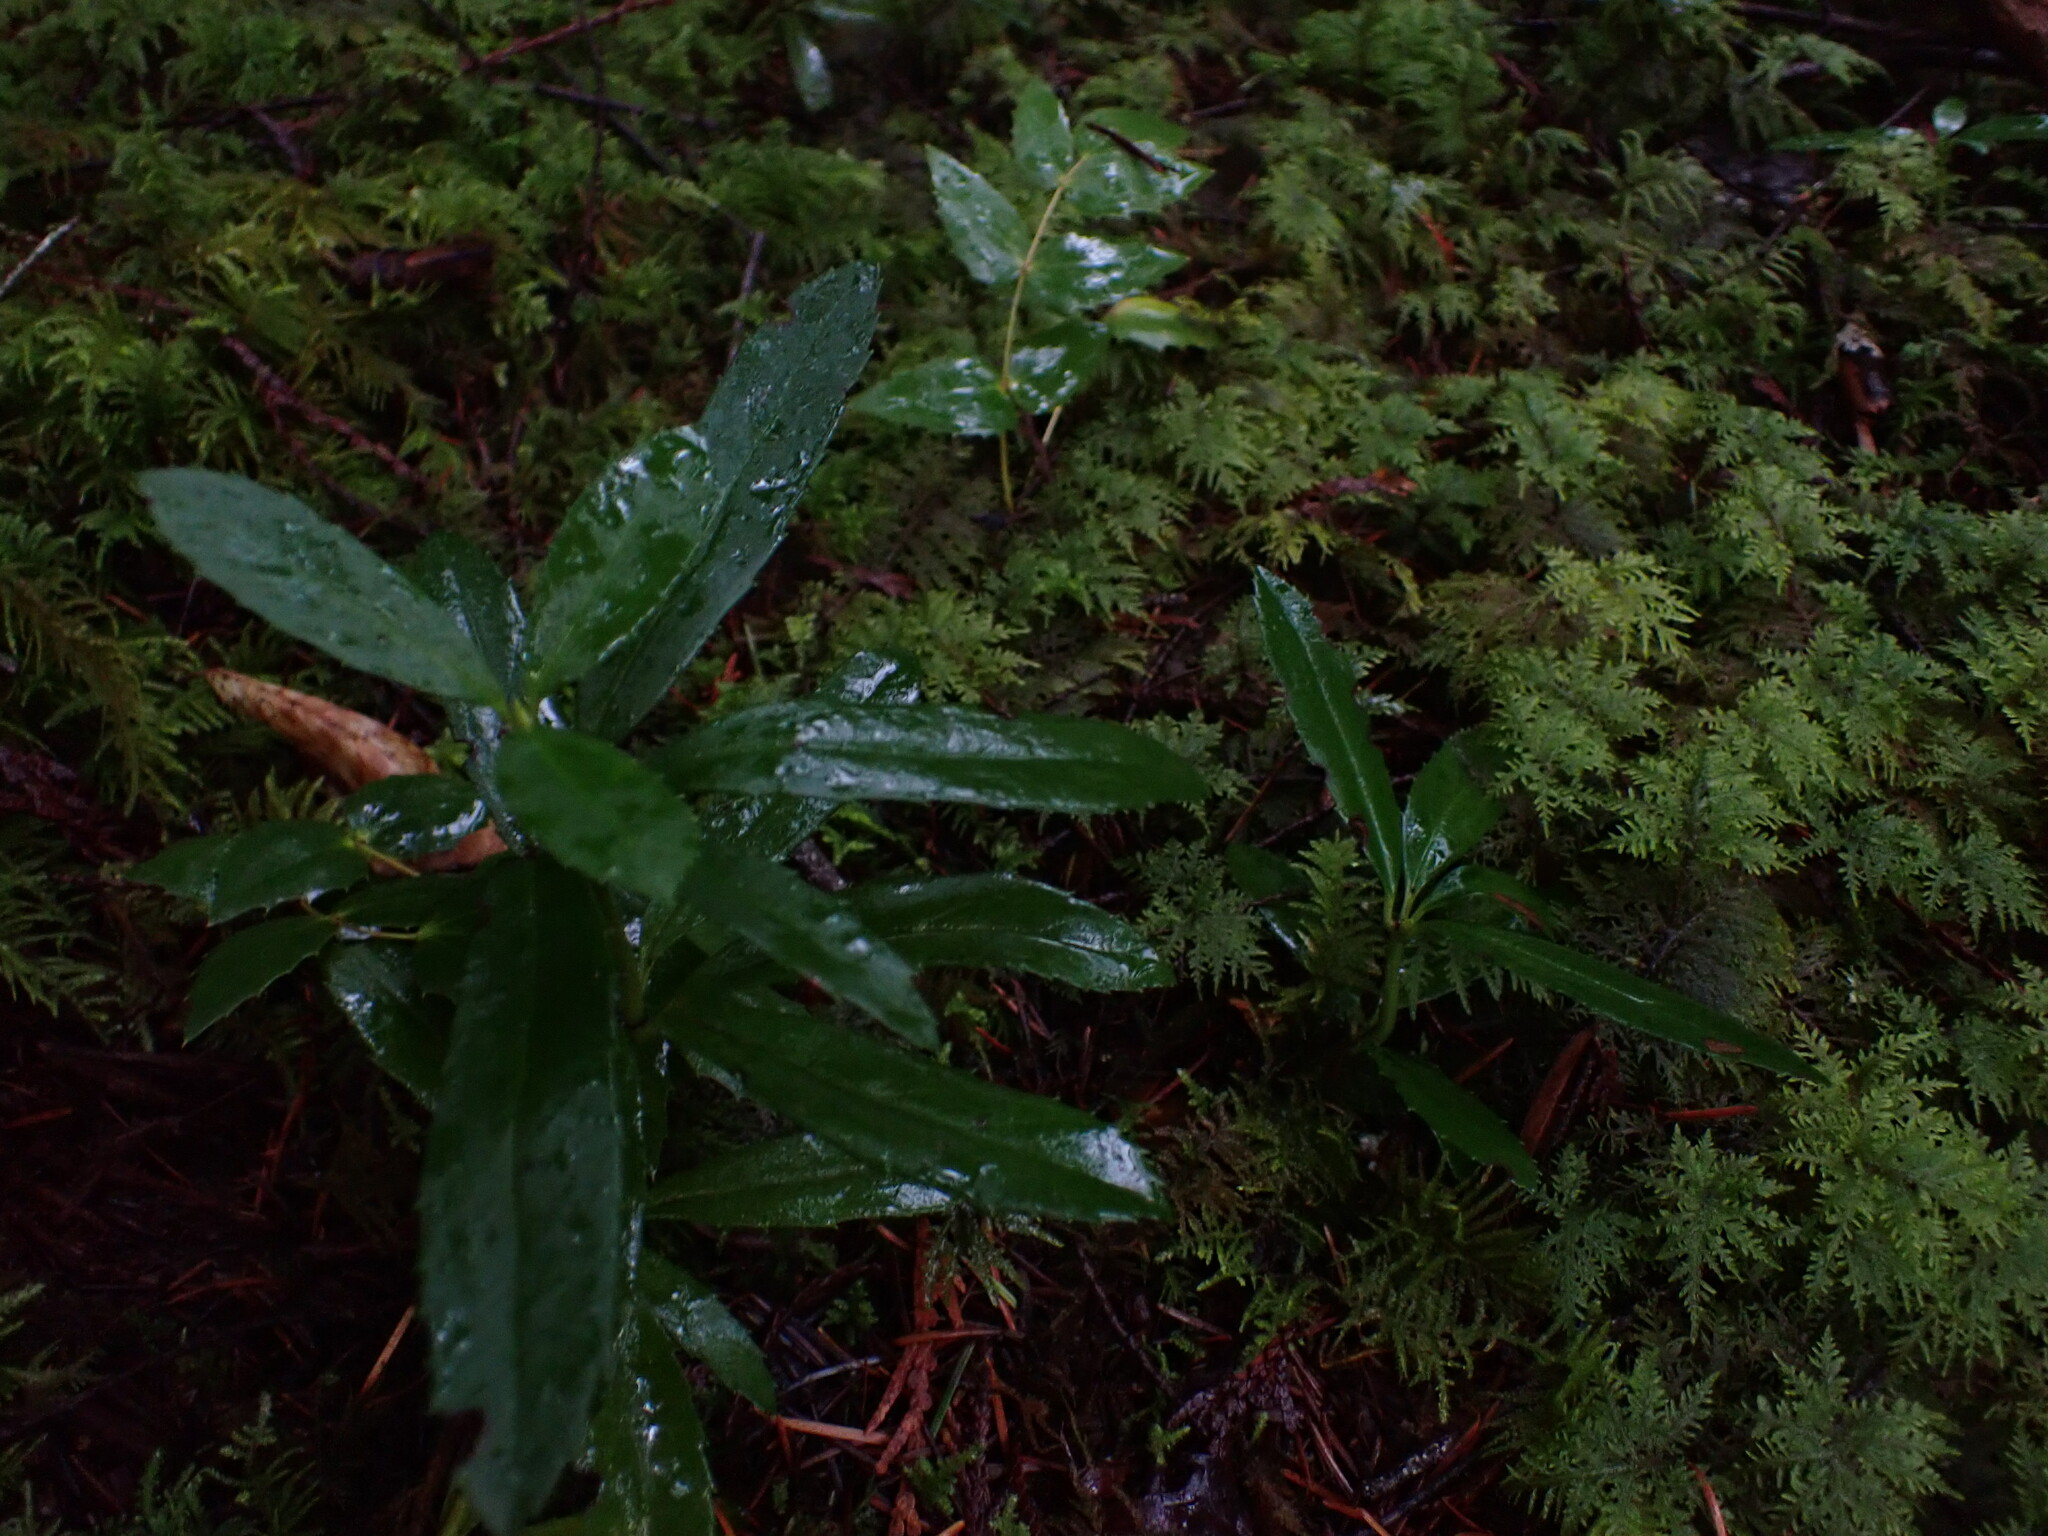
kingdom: Plantae
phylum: Tracheophyta
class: Magnoliopsida
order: Ericales
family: Ericaceae
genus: Chimaphila
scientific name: Chimaphila umbellata
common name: Pipsissewa
